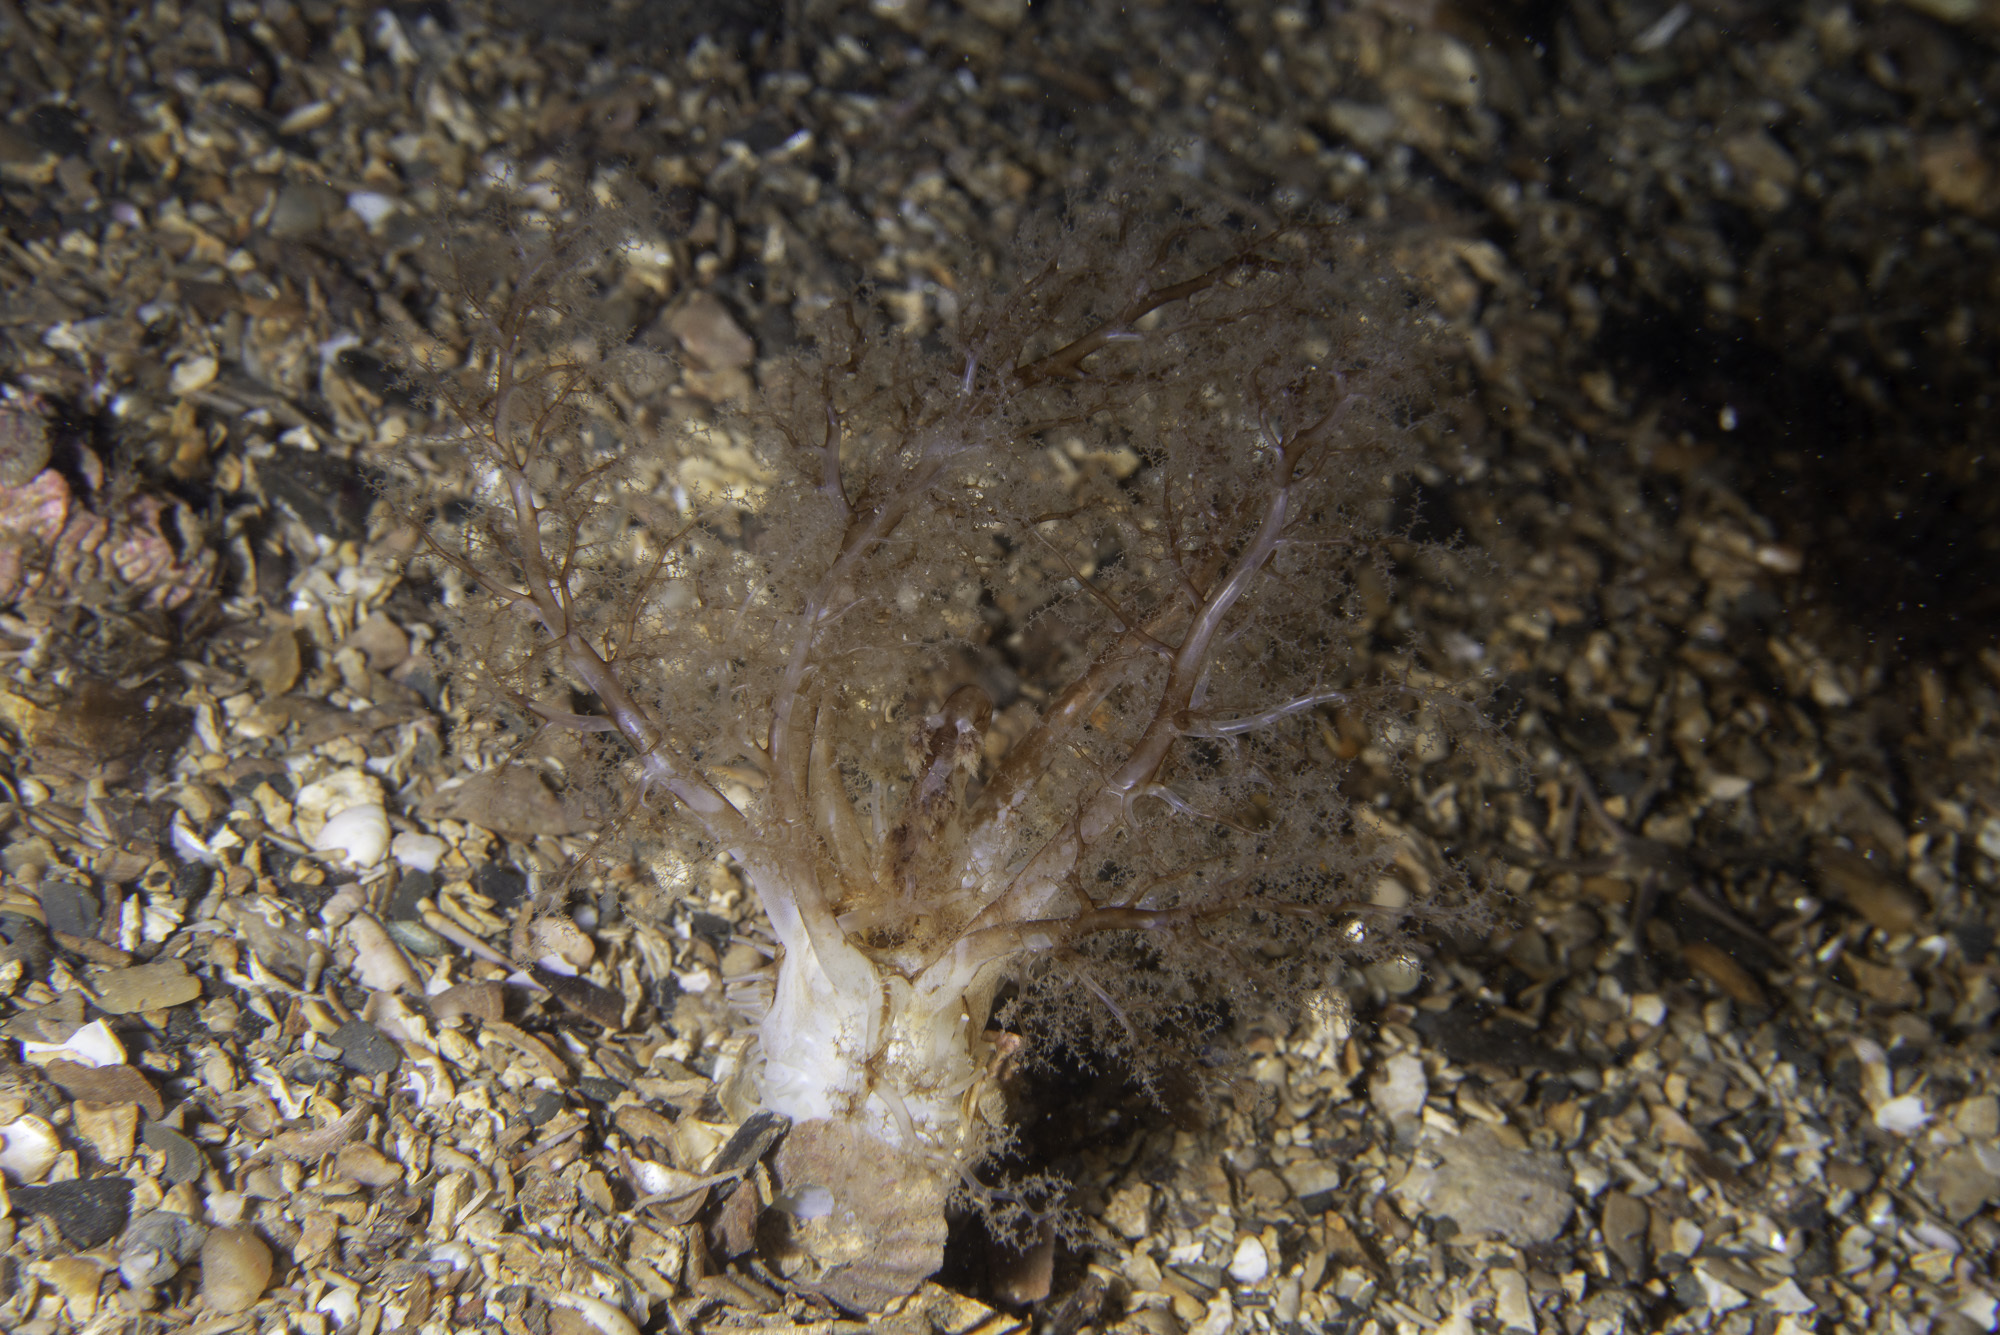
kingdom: Animalia
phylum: Echinodermata
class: Holothuroidea
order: Dendrochirotida
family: Phyllophoridae
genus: Neopentadactyla
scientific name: Neopentadactyla mixta
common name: Gravel sea cucumber
